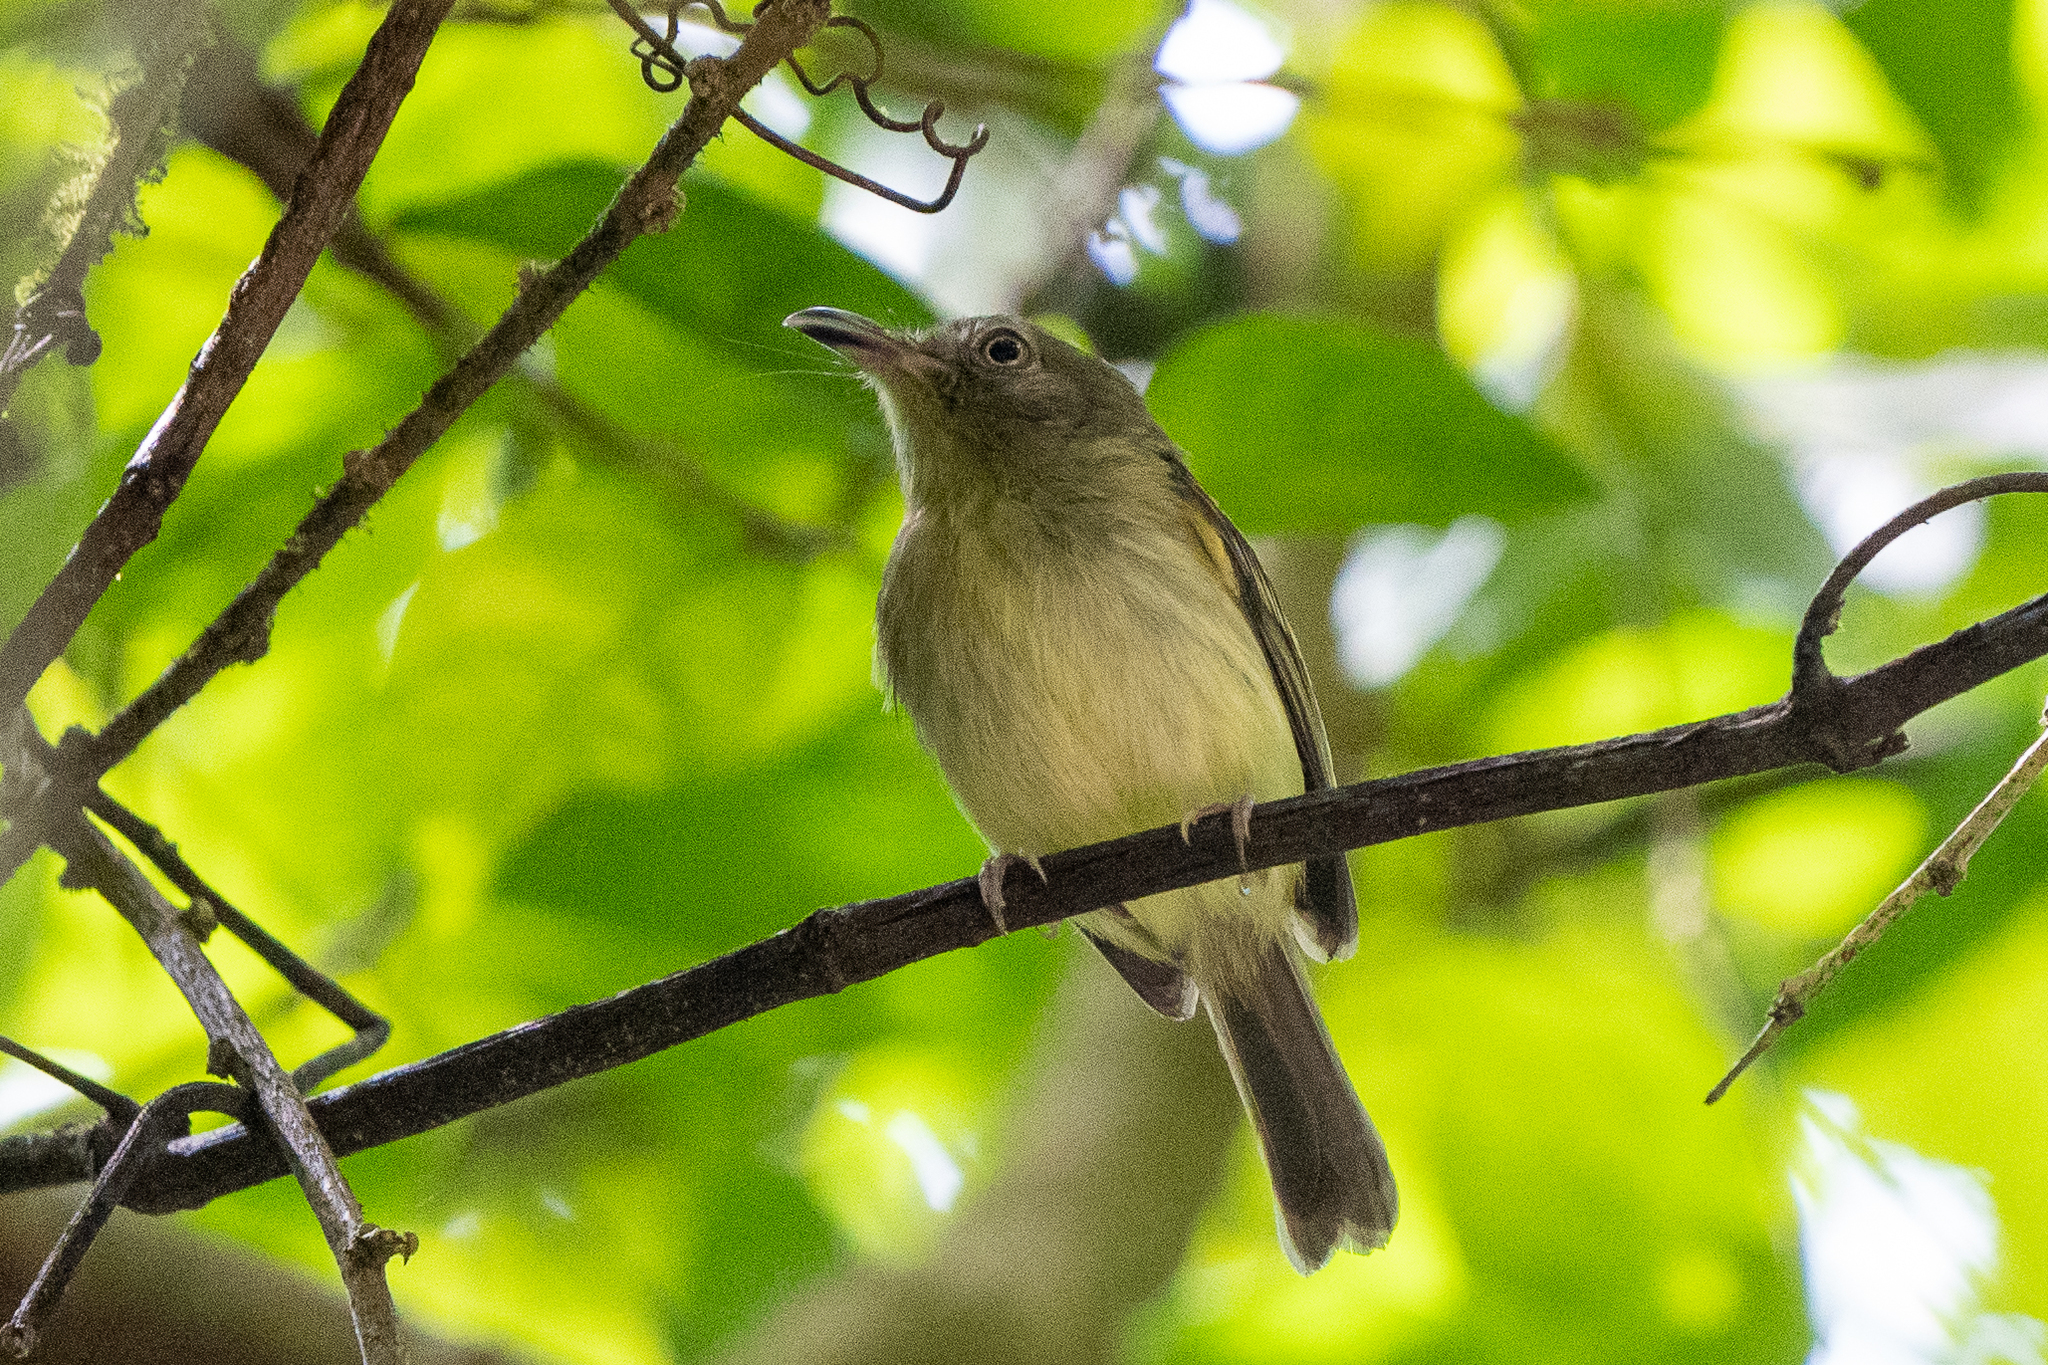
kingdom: Animalia
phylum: Chordata
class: Aves
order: Passeriformes
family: Tyrannidae
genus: Oncostoma
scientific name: Oncostoma olivaceum
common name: Southern bentbill
